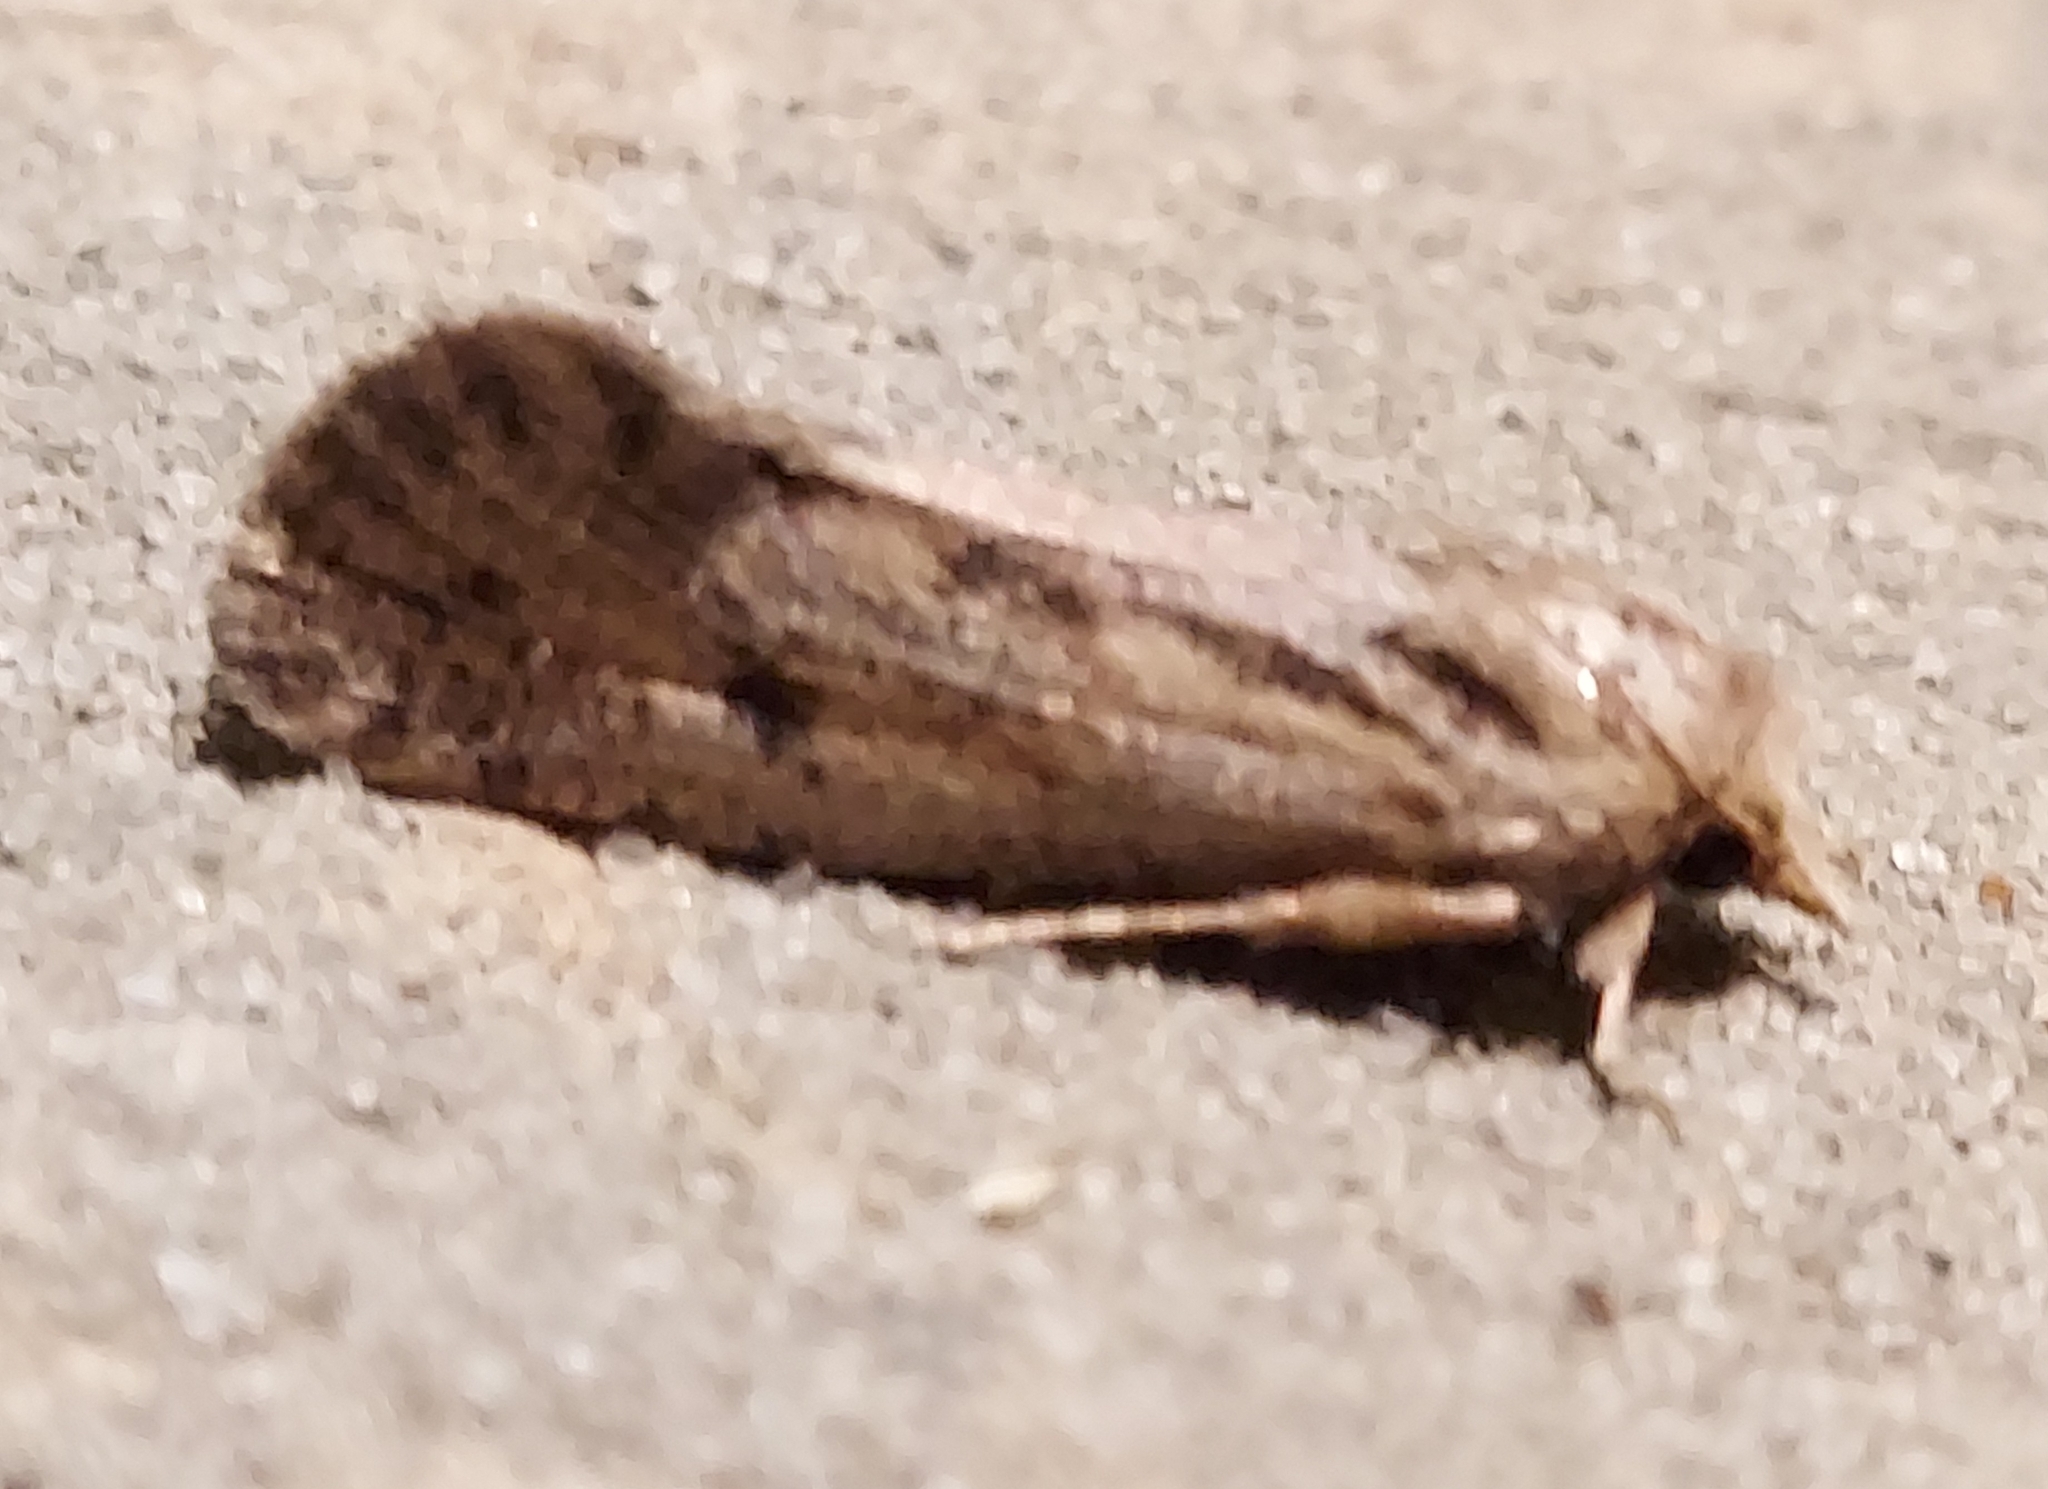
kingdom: Animalia
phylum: Arthropoda
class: Insecta
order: Lepidoptera
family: Tineidae
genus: Acrolophus
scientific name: Acrolophus popeanella
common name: Clemens' grass tubeworm moth
